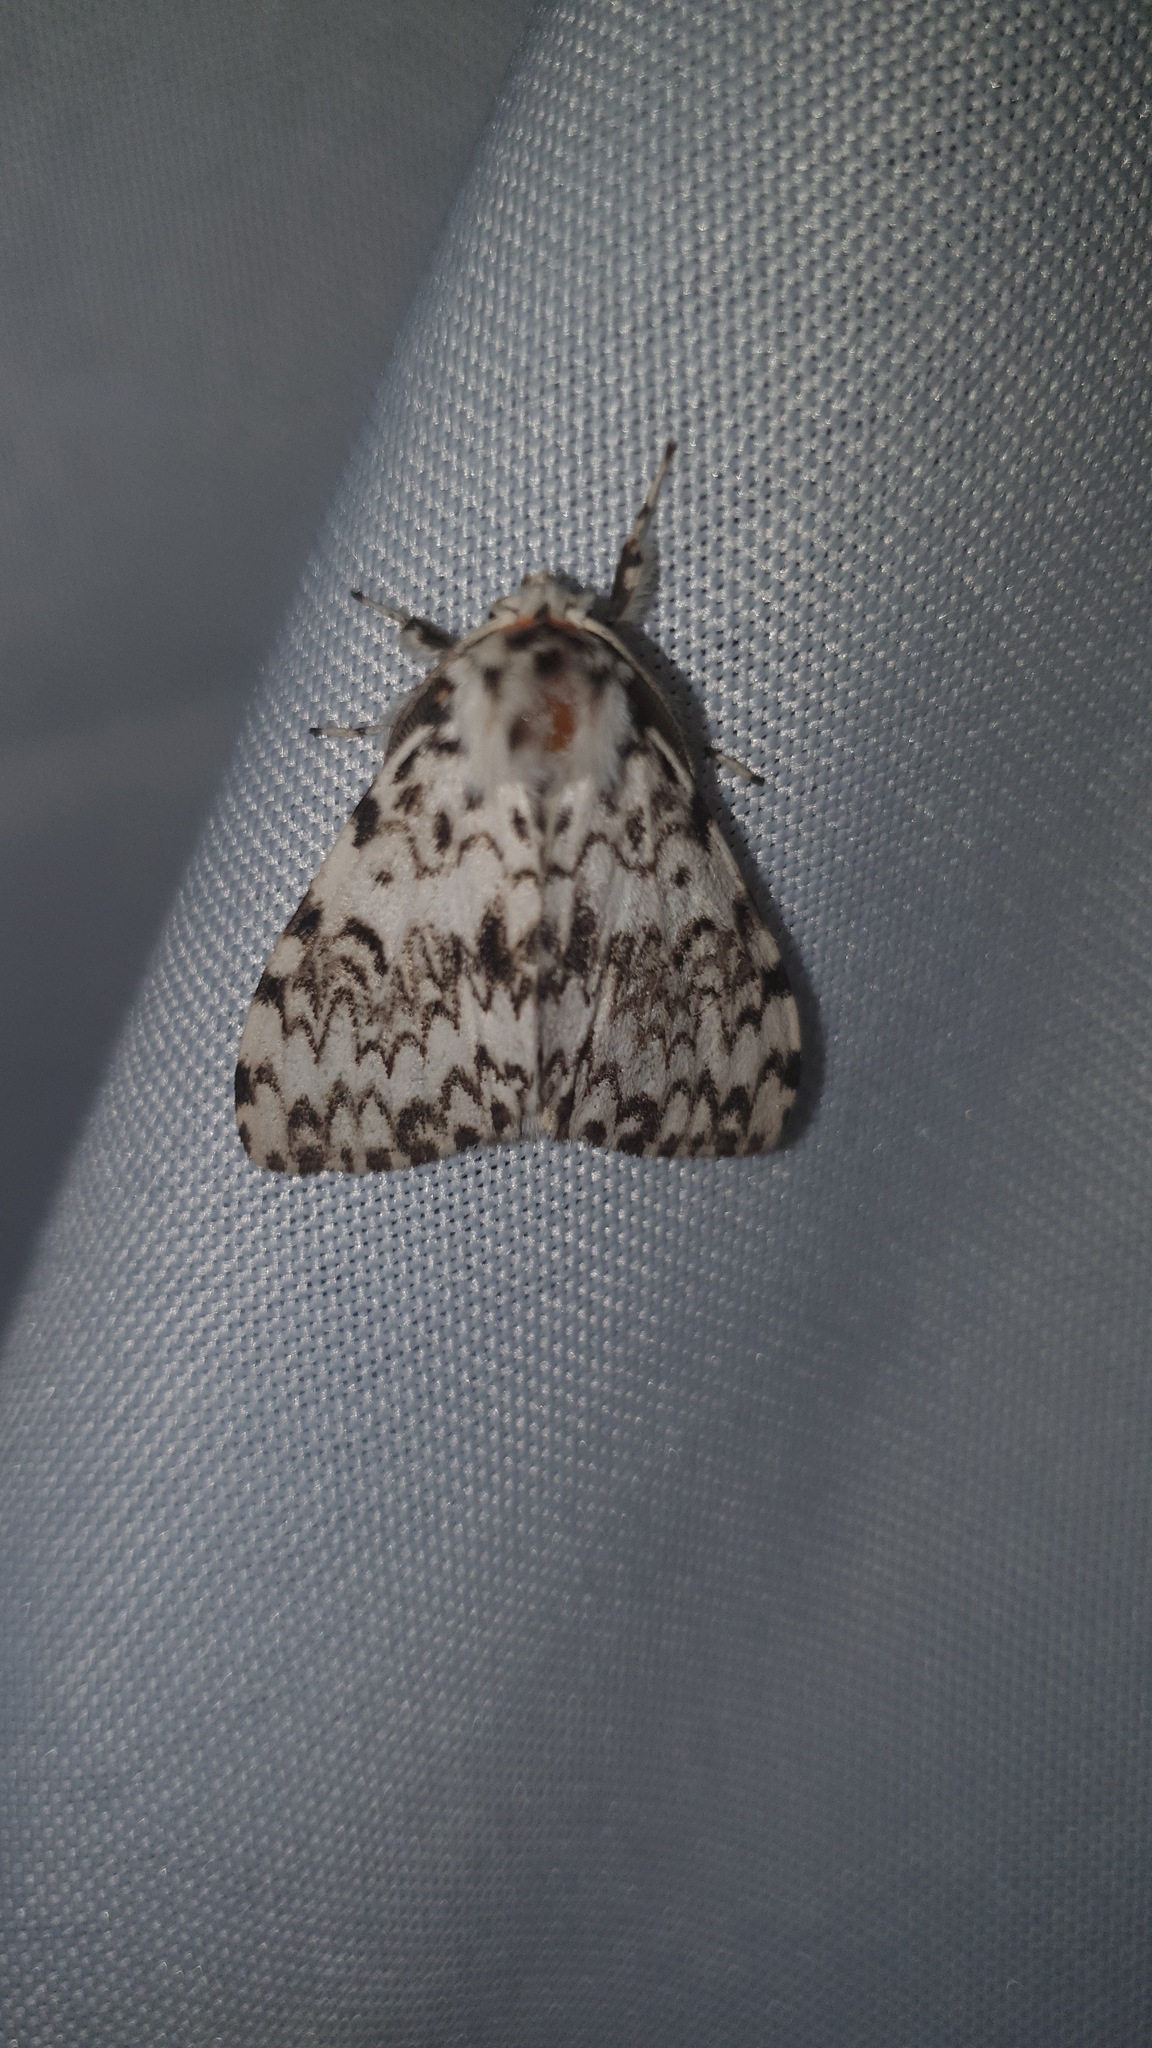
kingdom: Animalia
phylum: Arthropoda
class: Insecta
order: Lepidoptera
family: Erebidae
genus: Lymantria
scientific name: Lymantria monacha
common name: Black arches
